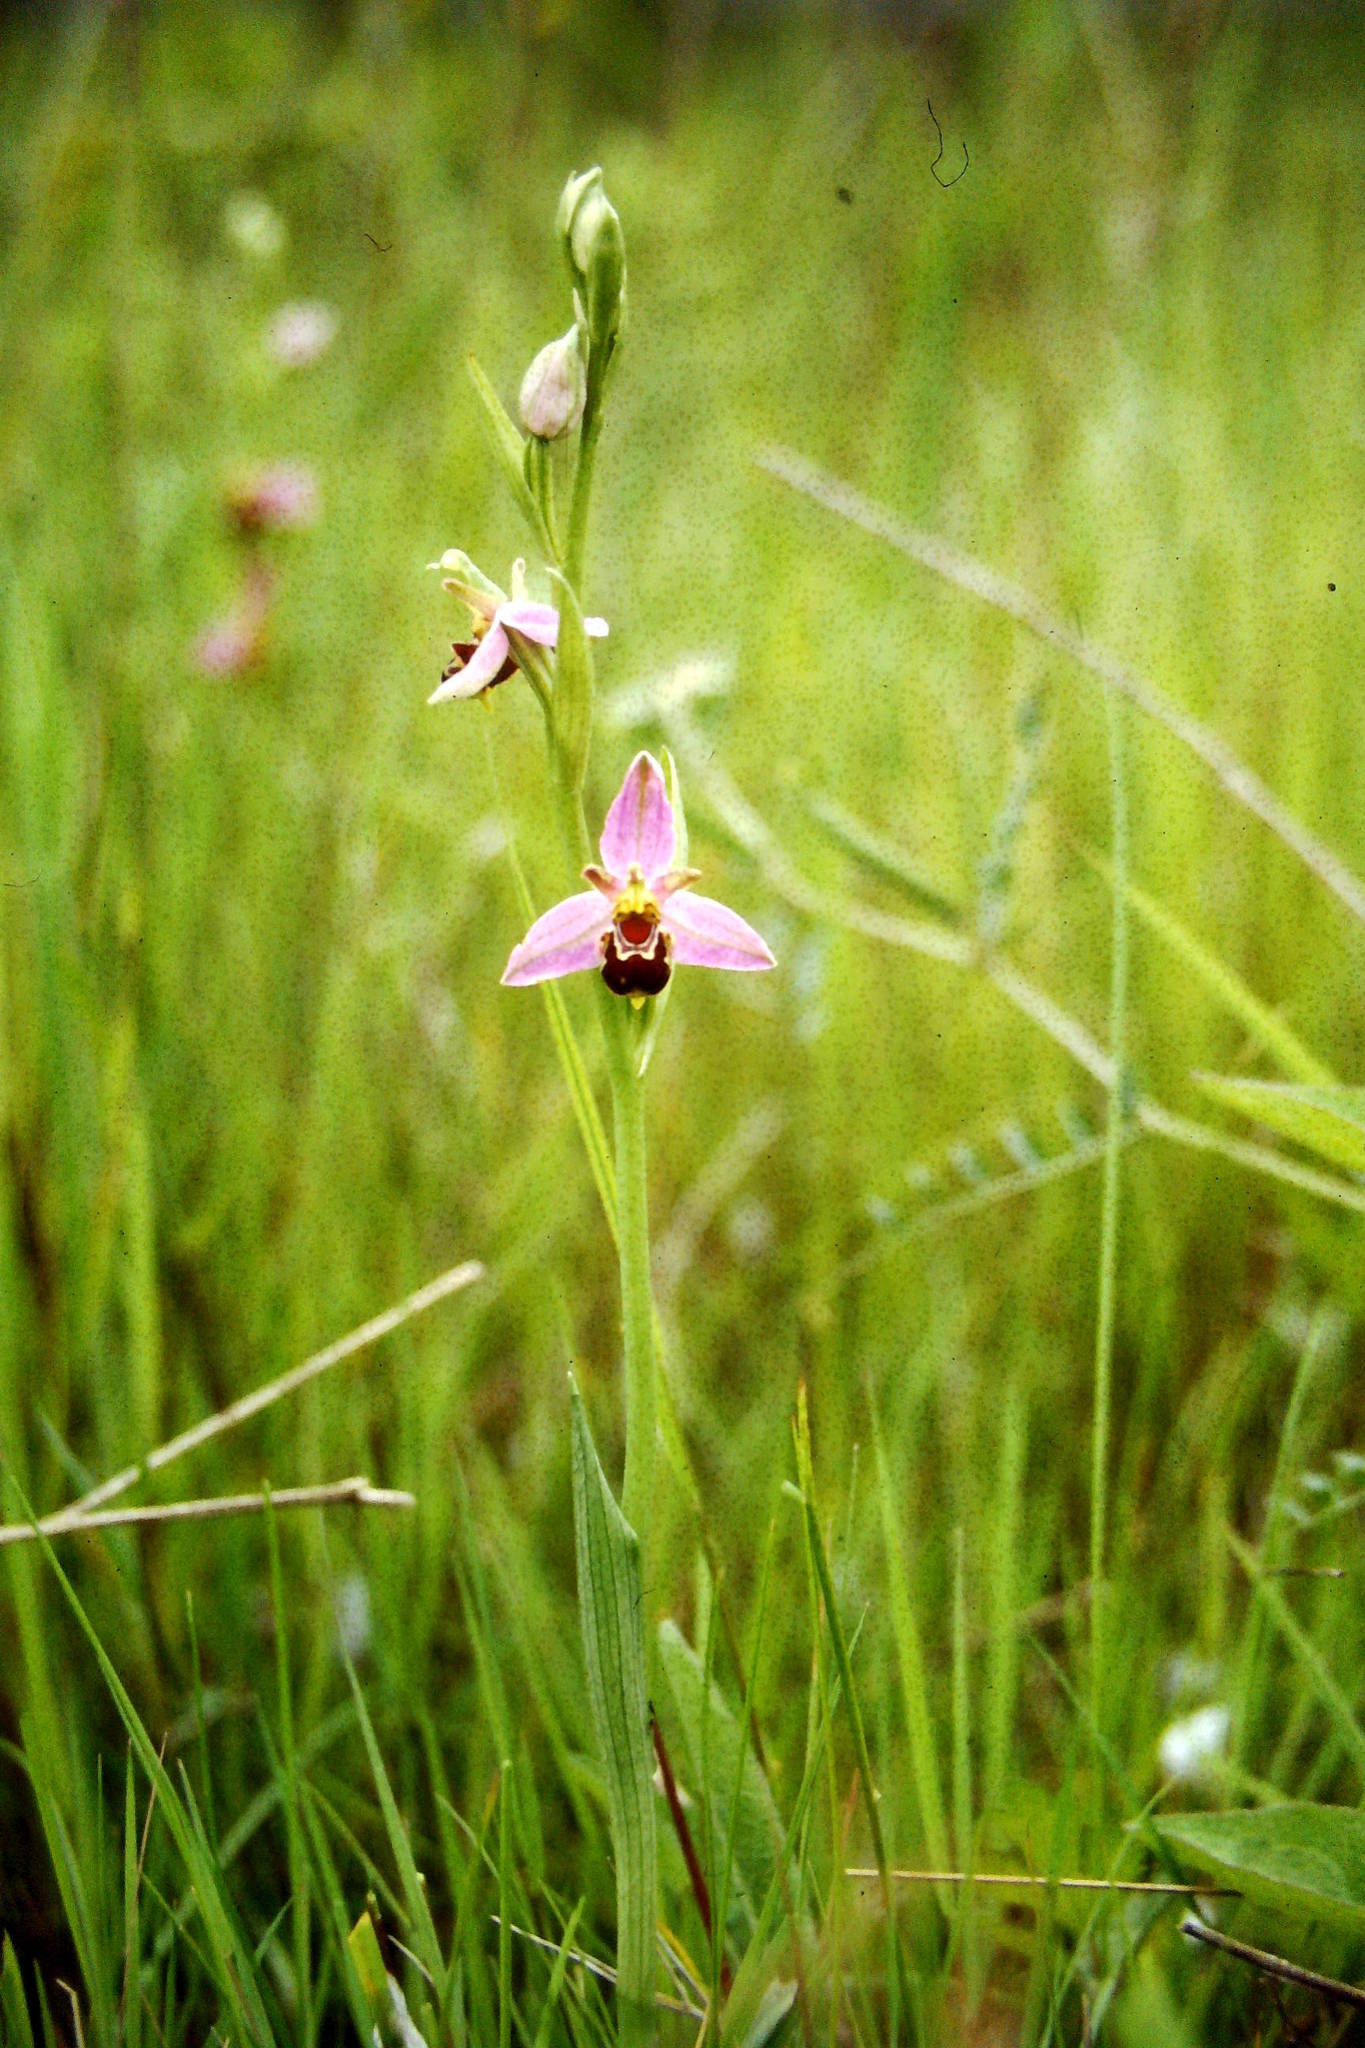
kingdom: Plantae
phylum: Tracheophyta
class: Liliopsida
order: Asparagales
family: Orchidaceae
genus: Ophrys
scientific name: Ophrys apifera
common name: Bee orchid
